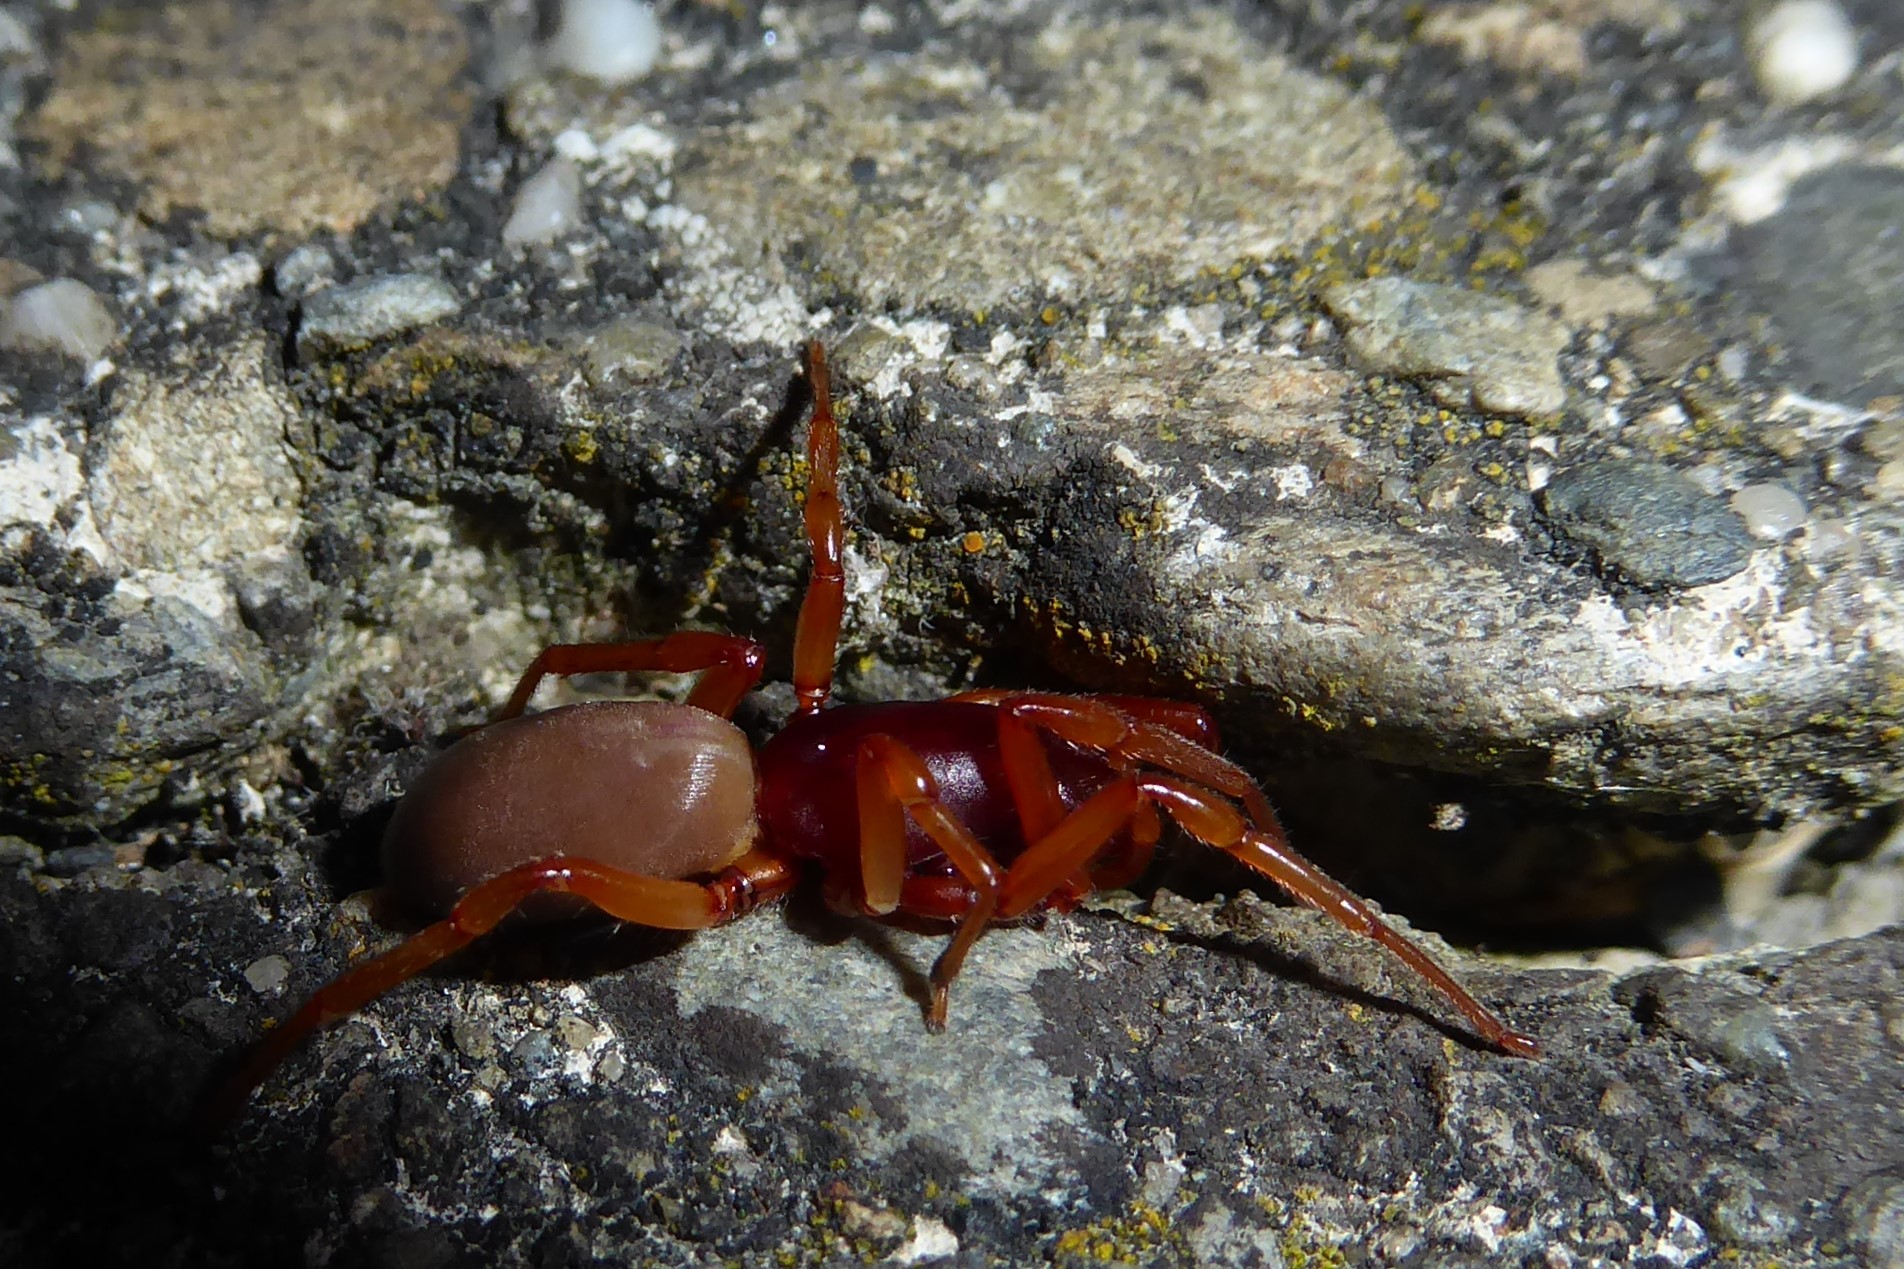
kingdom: Animalia
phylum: Arthropoda
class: Arachnida
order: Araneae
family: Dysderidae
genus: Dysdera
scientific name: Dysdera crocata
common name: Woodlouse spider
